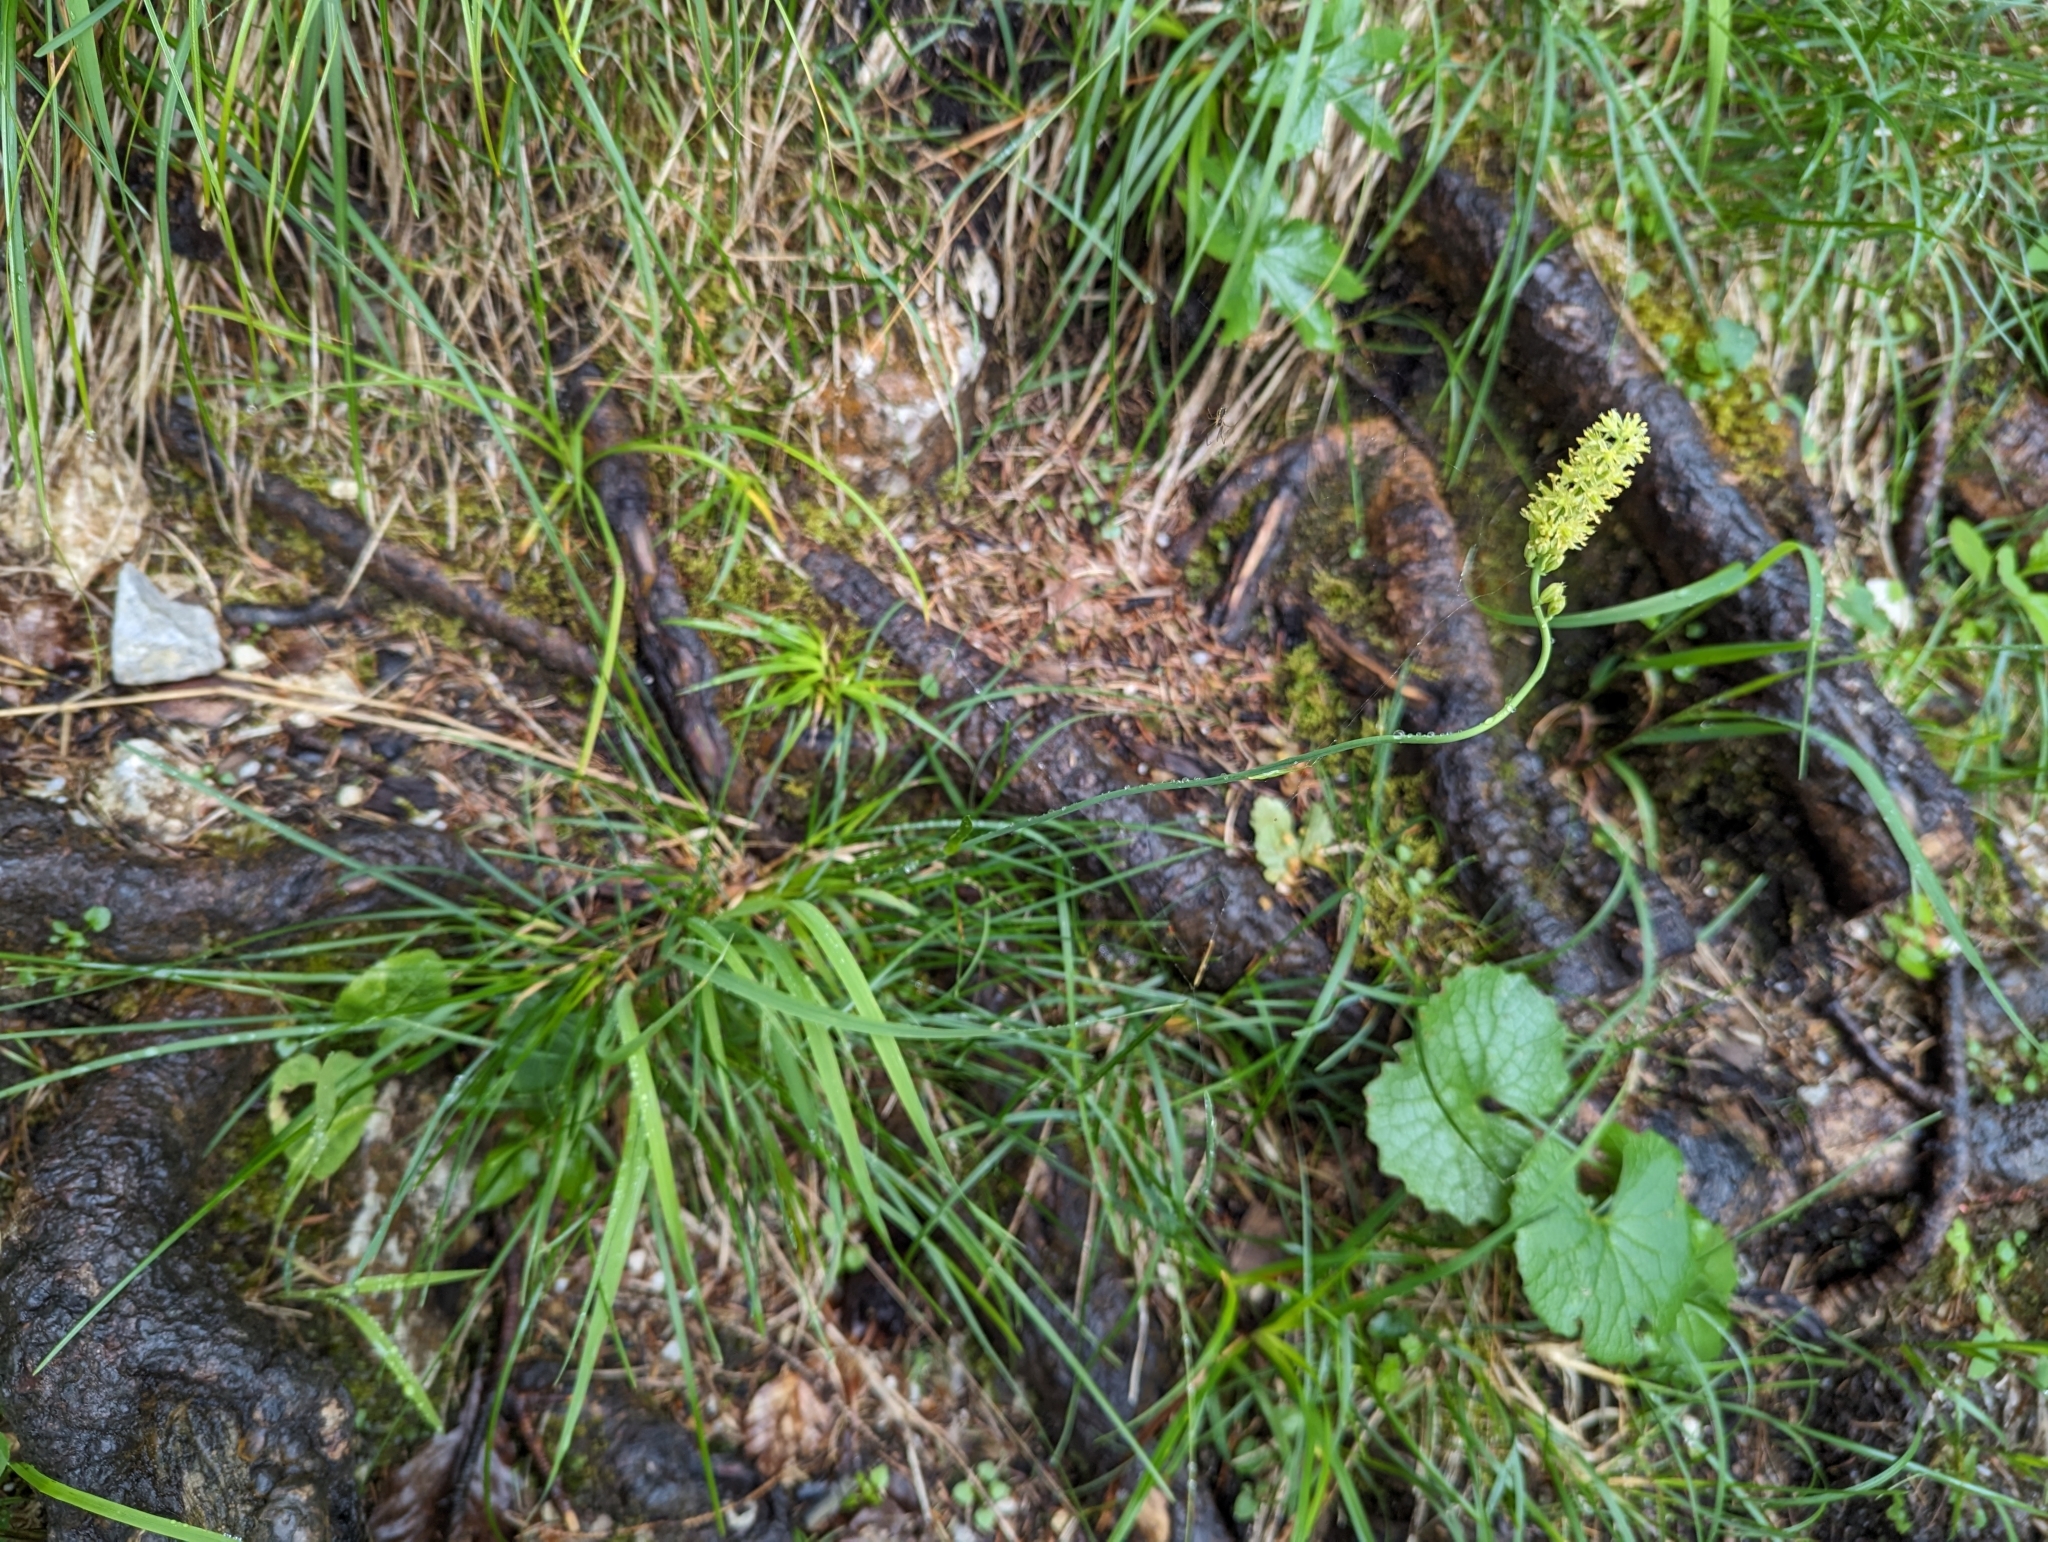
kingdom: Plantae
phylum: Tracheophyta
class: Liliopsida
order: Alismatales
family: Tofieldiaceae
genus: Tofieldia
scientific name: Tofieldia calyculata
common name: German-asphodel
